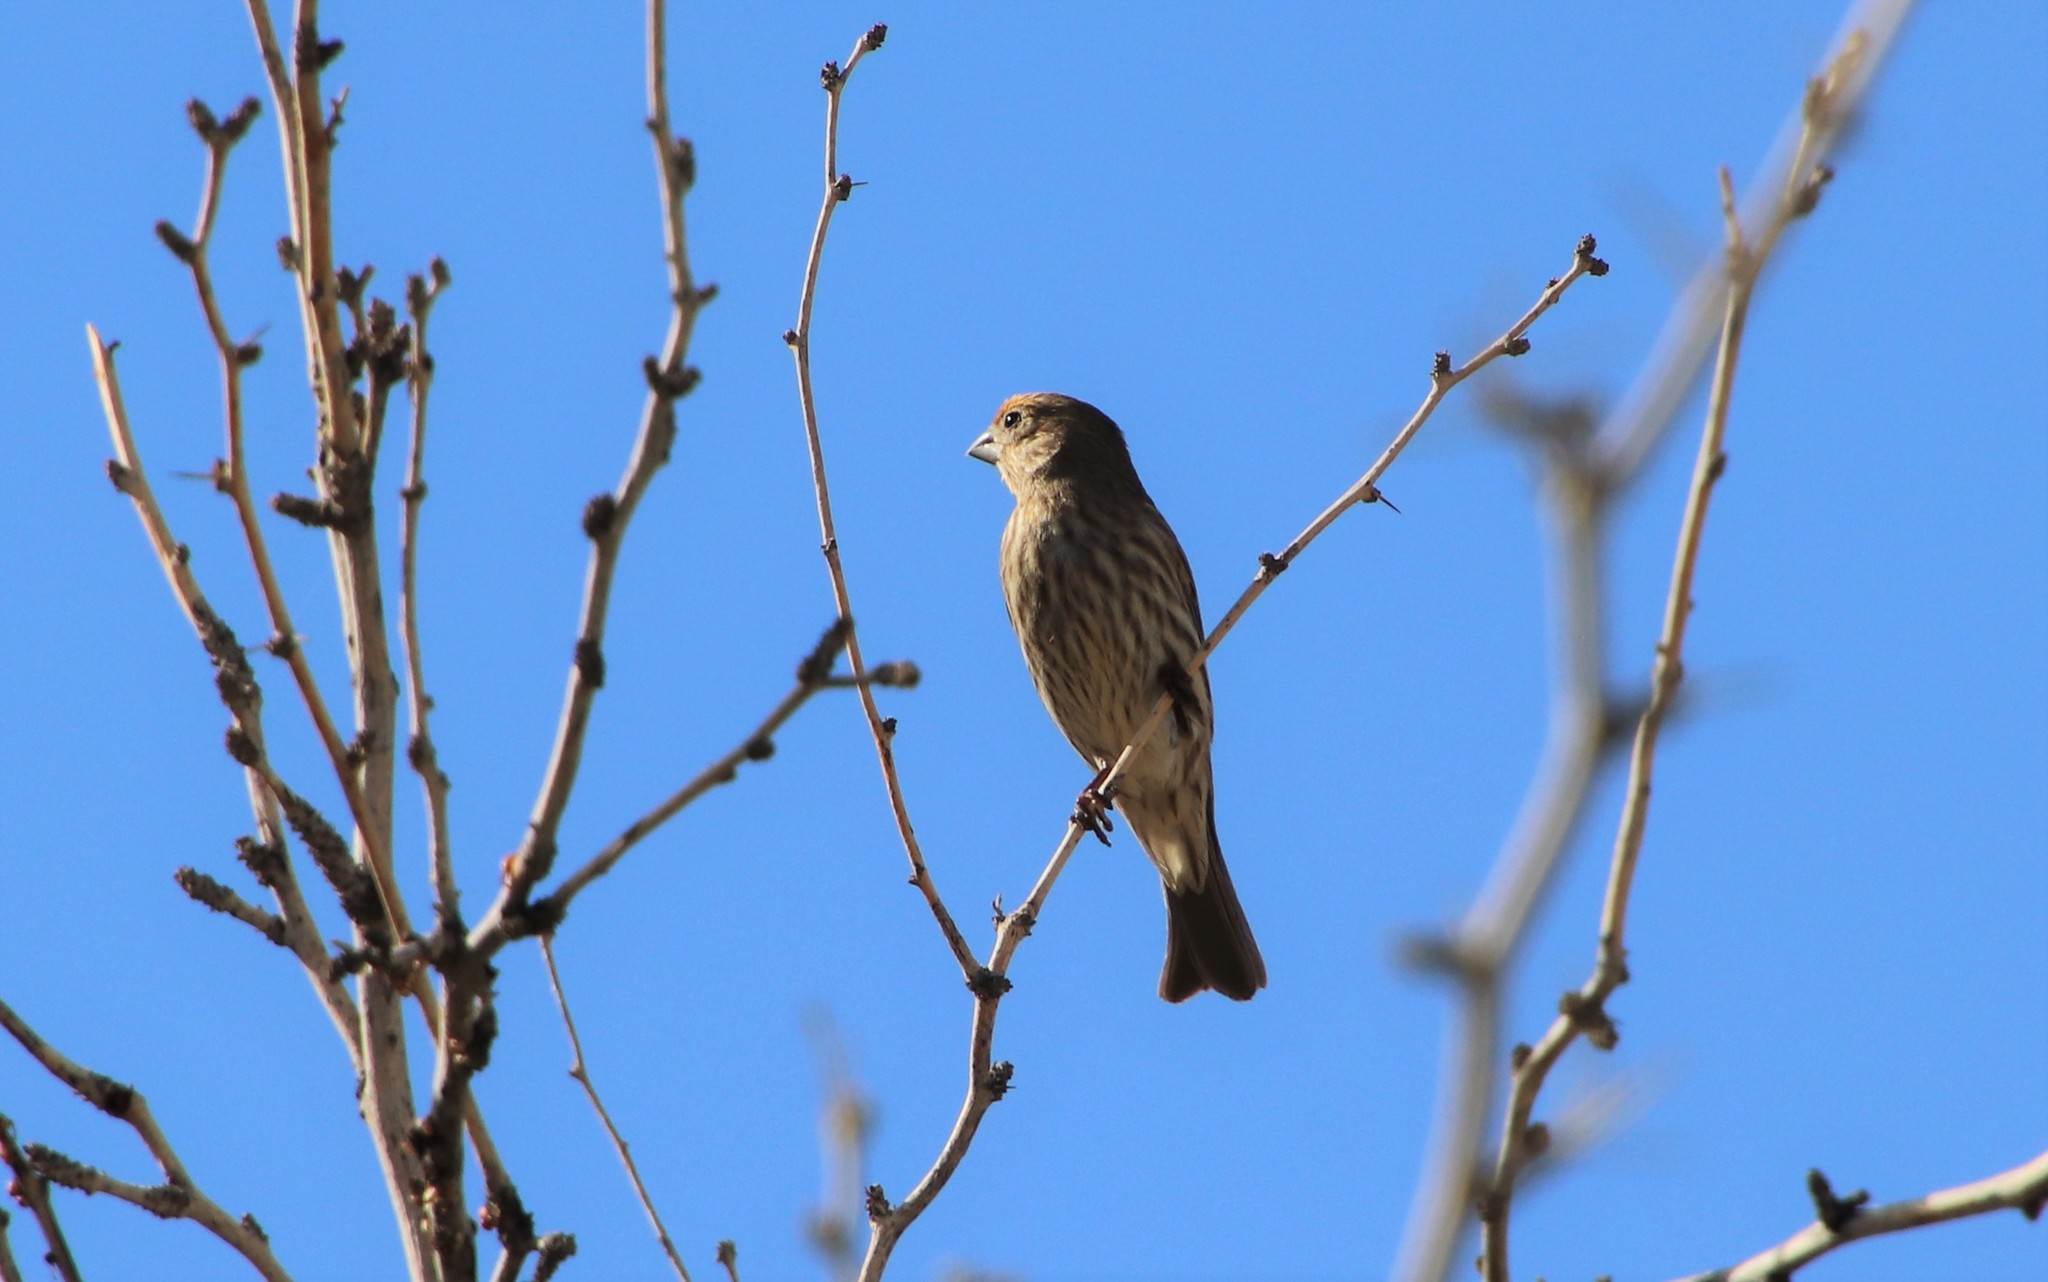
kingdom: Animalia
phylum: Chordata
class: Aves
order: Passeriformes
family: Fringillidae
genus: Haemorhous
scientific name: Haemorhous mexicanus
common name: House finch
